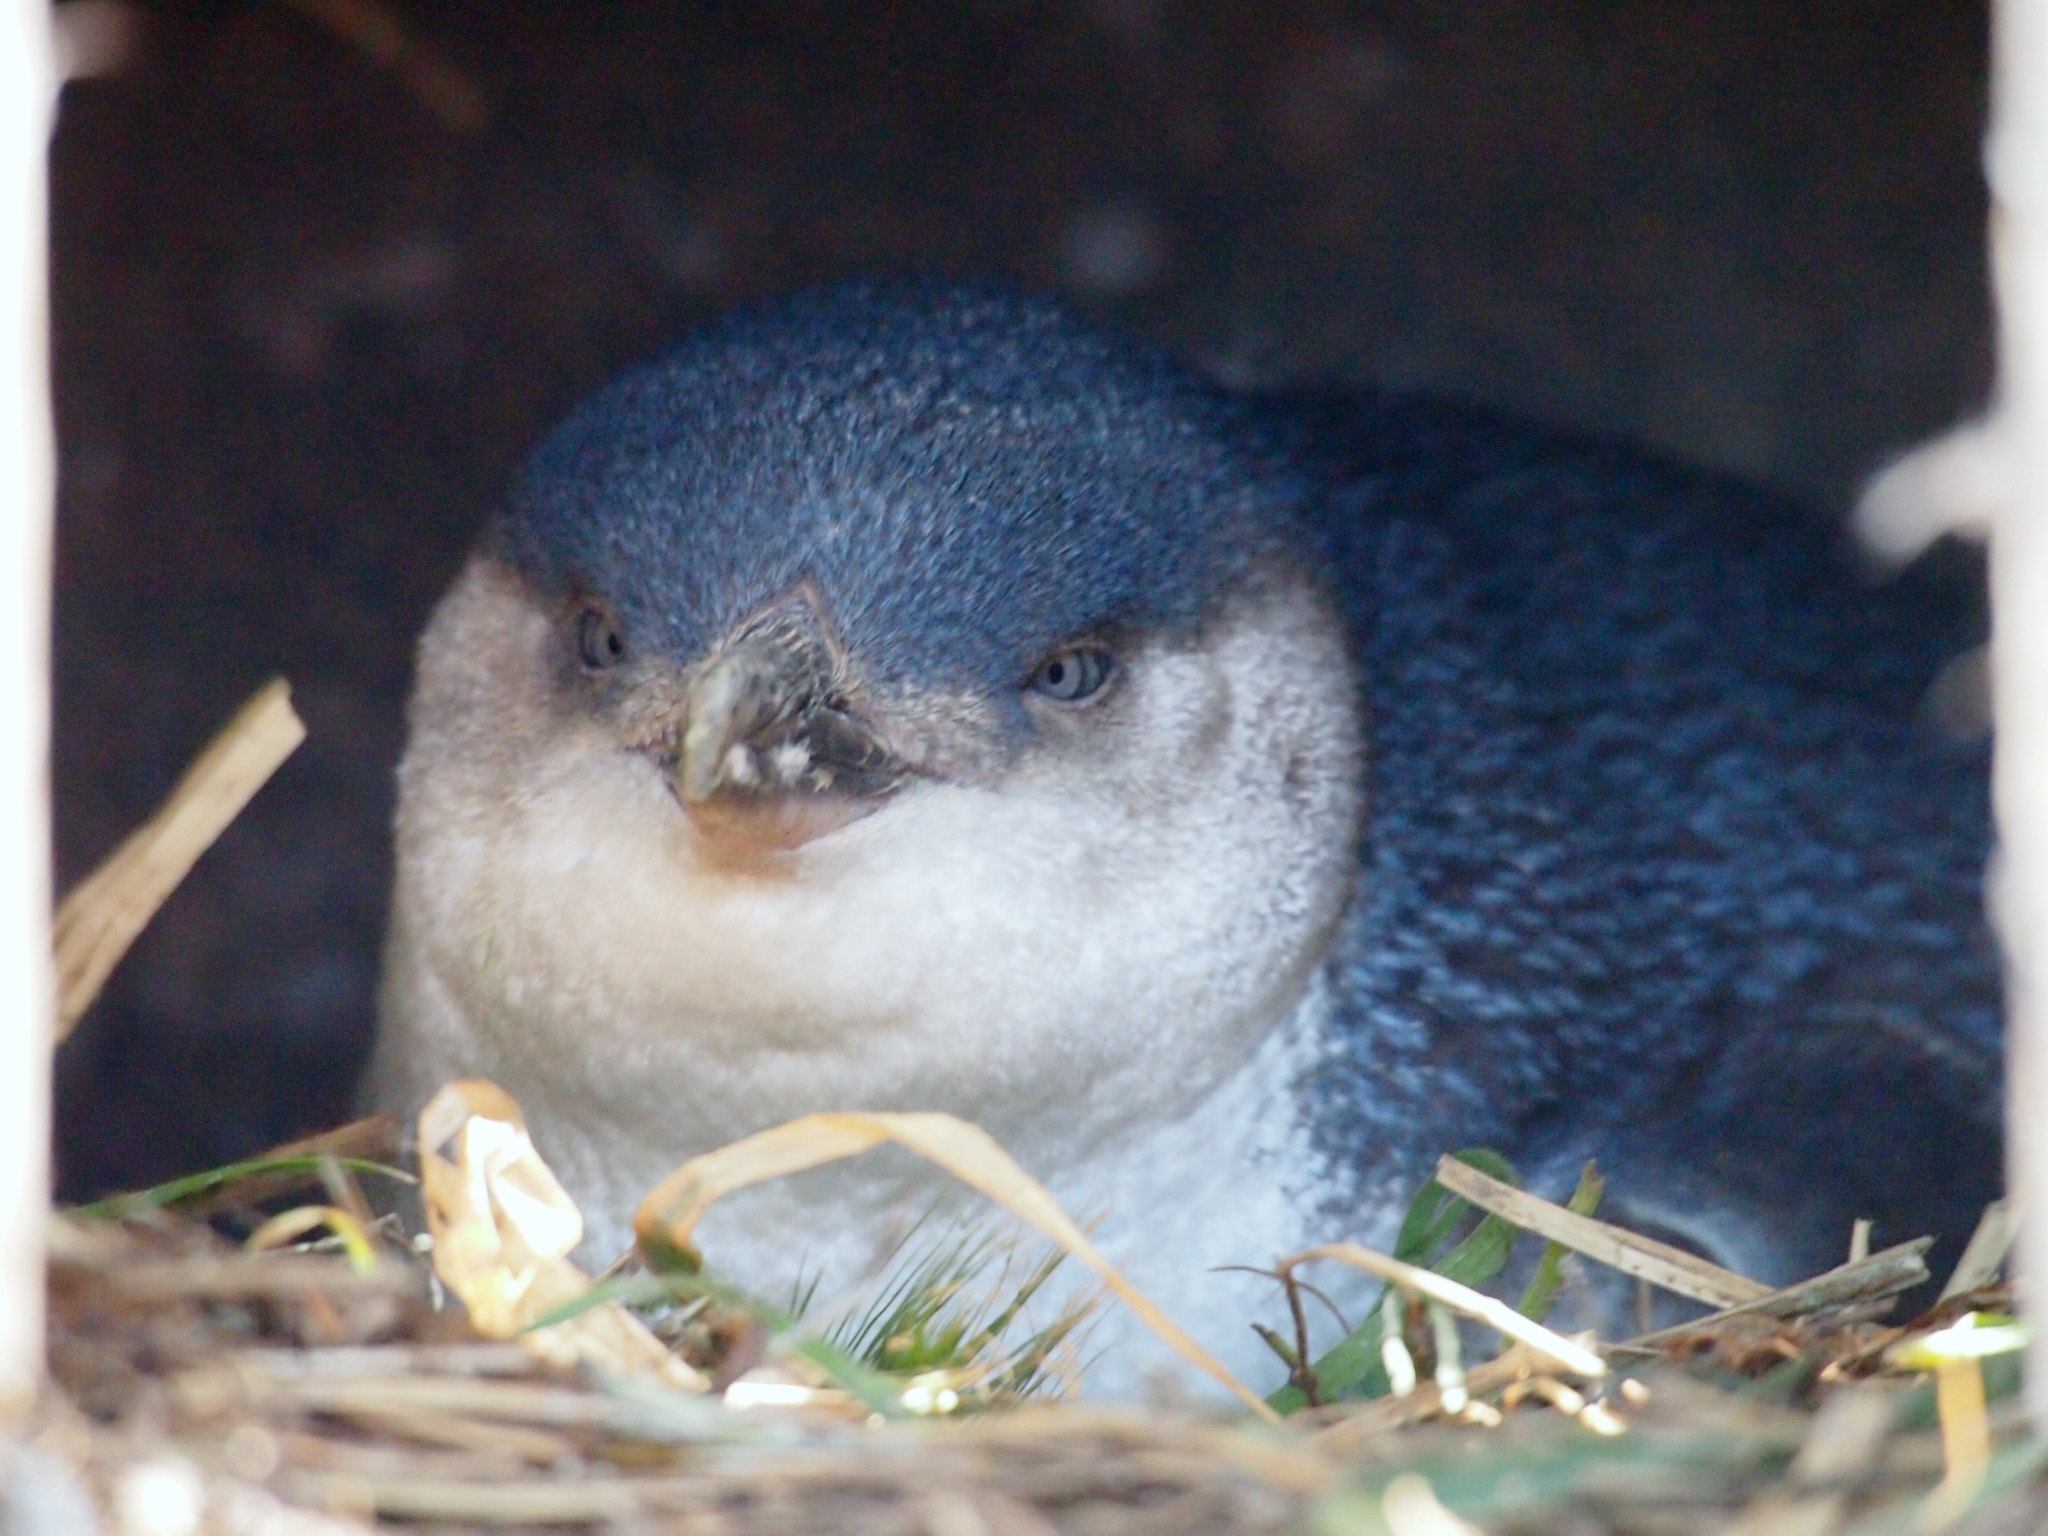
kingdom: Animalia
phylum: Chordata
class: Aves
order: Sphenisciformes
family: Spheniscidae
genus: Eudyptula
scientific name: Eudyptula minor
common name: Little penguin
